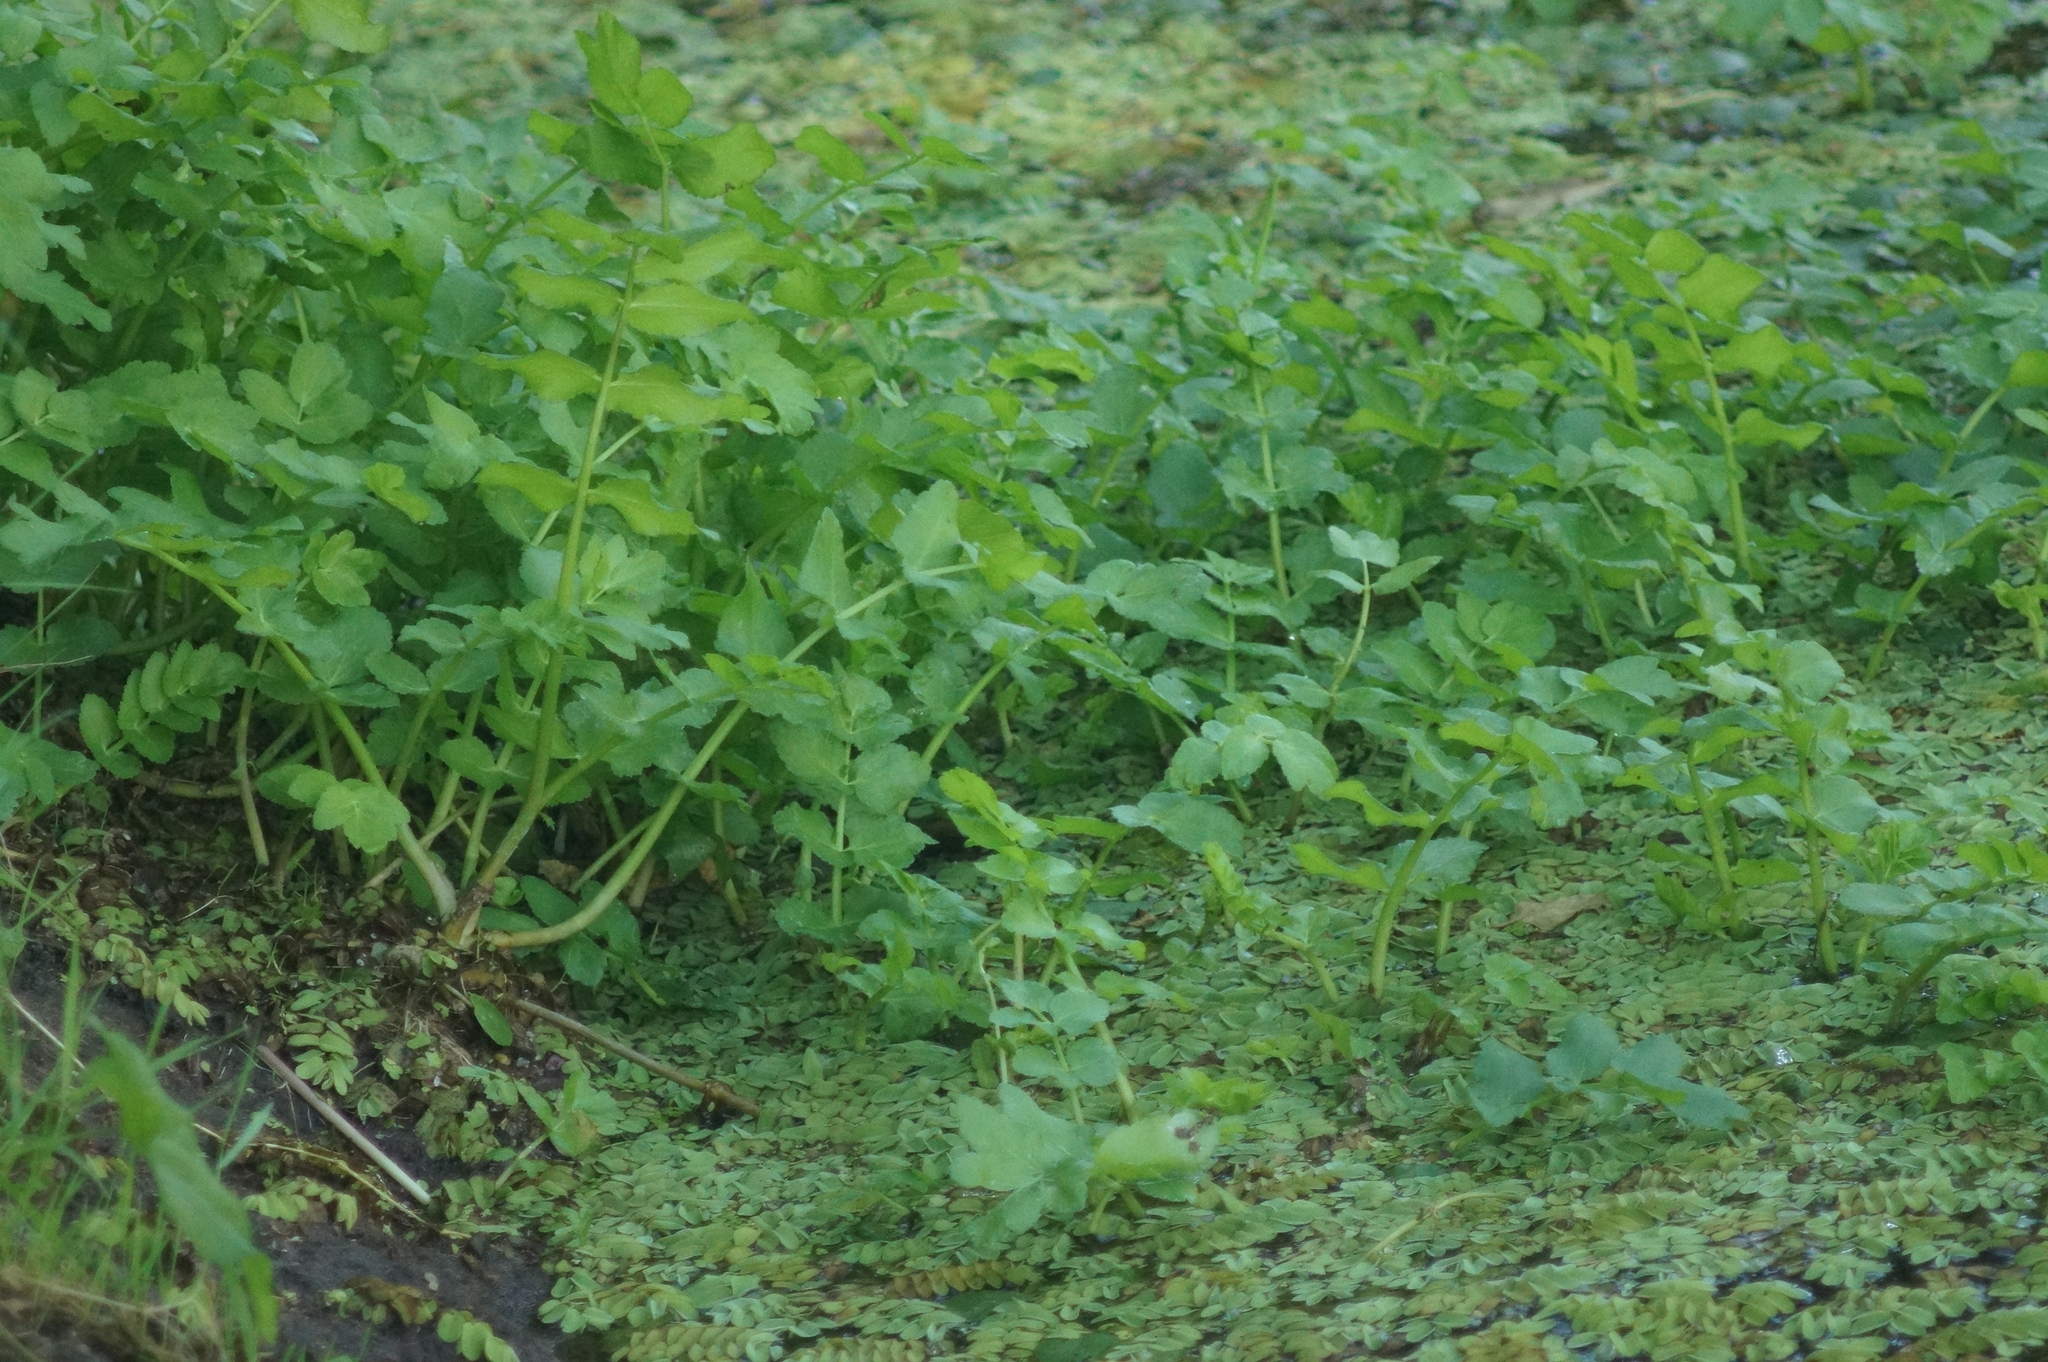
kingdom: Plantae
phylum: Tracheophyta
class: Magnoliopsida
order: Apiales
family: Apiaceae
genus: Sium
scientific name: Sium latifolium
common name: Greater water-parsnip
